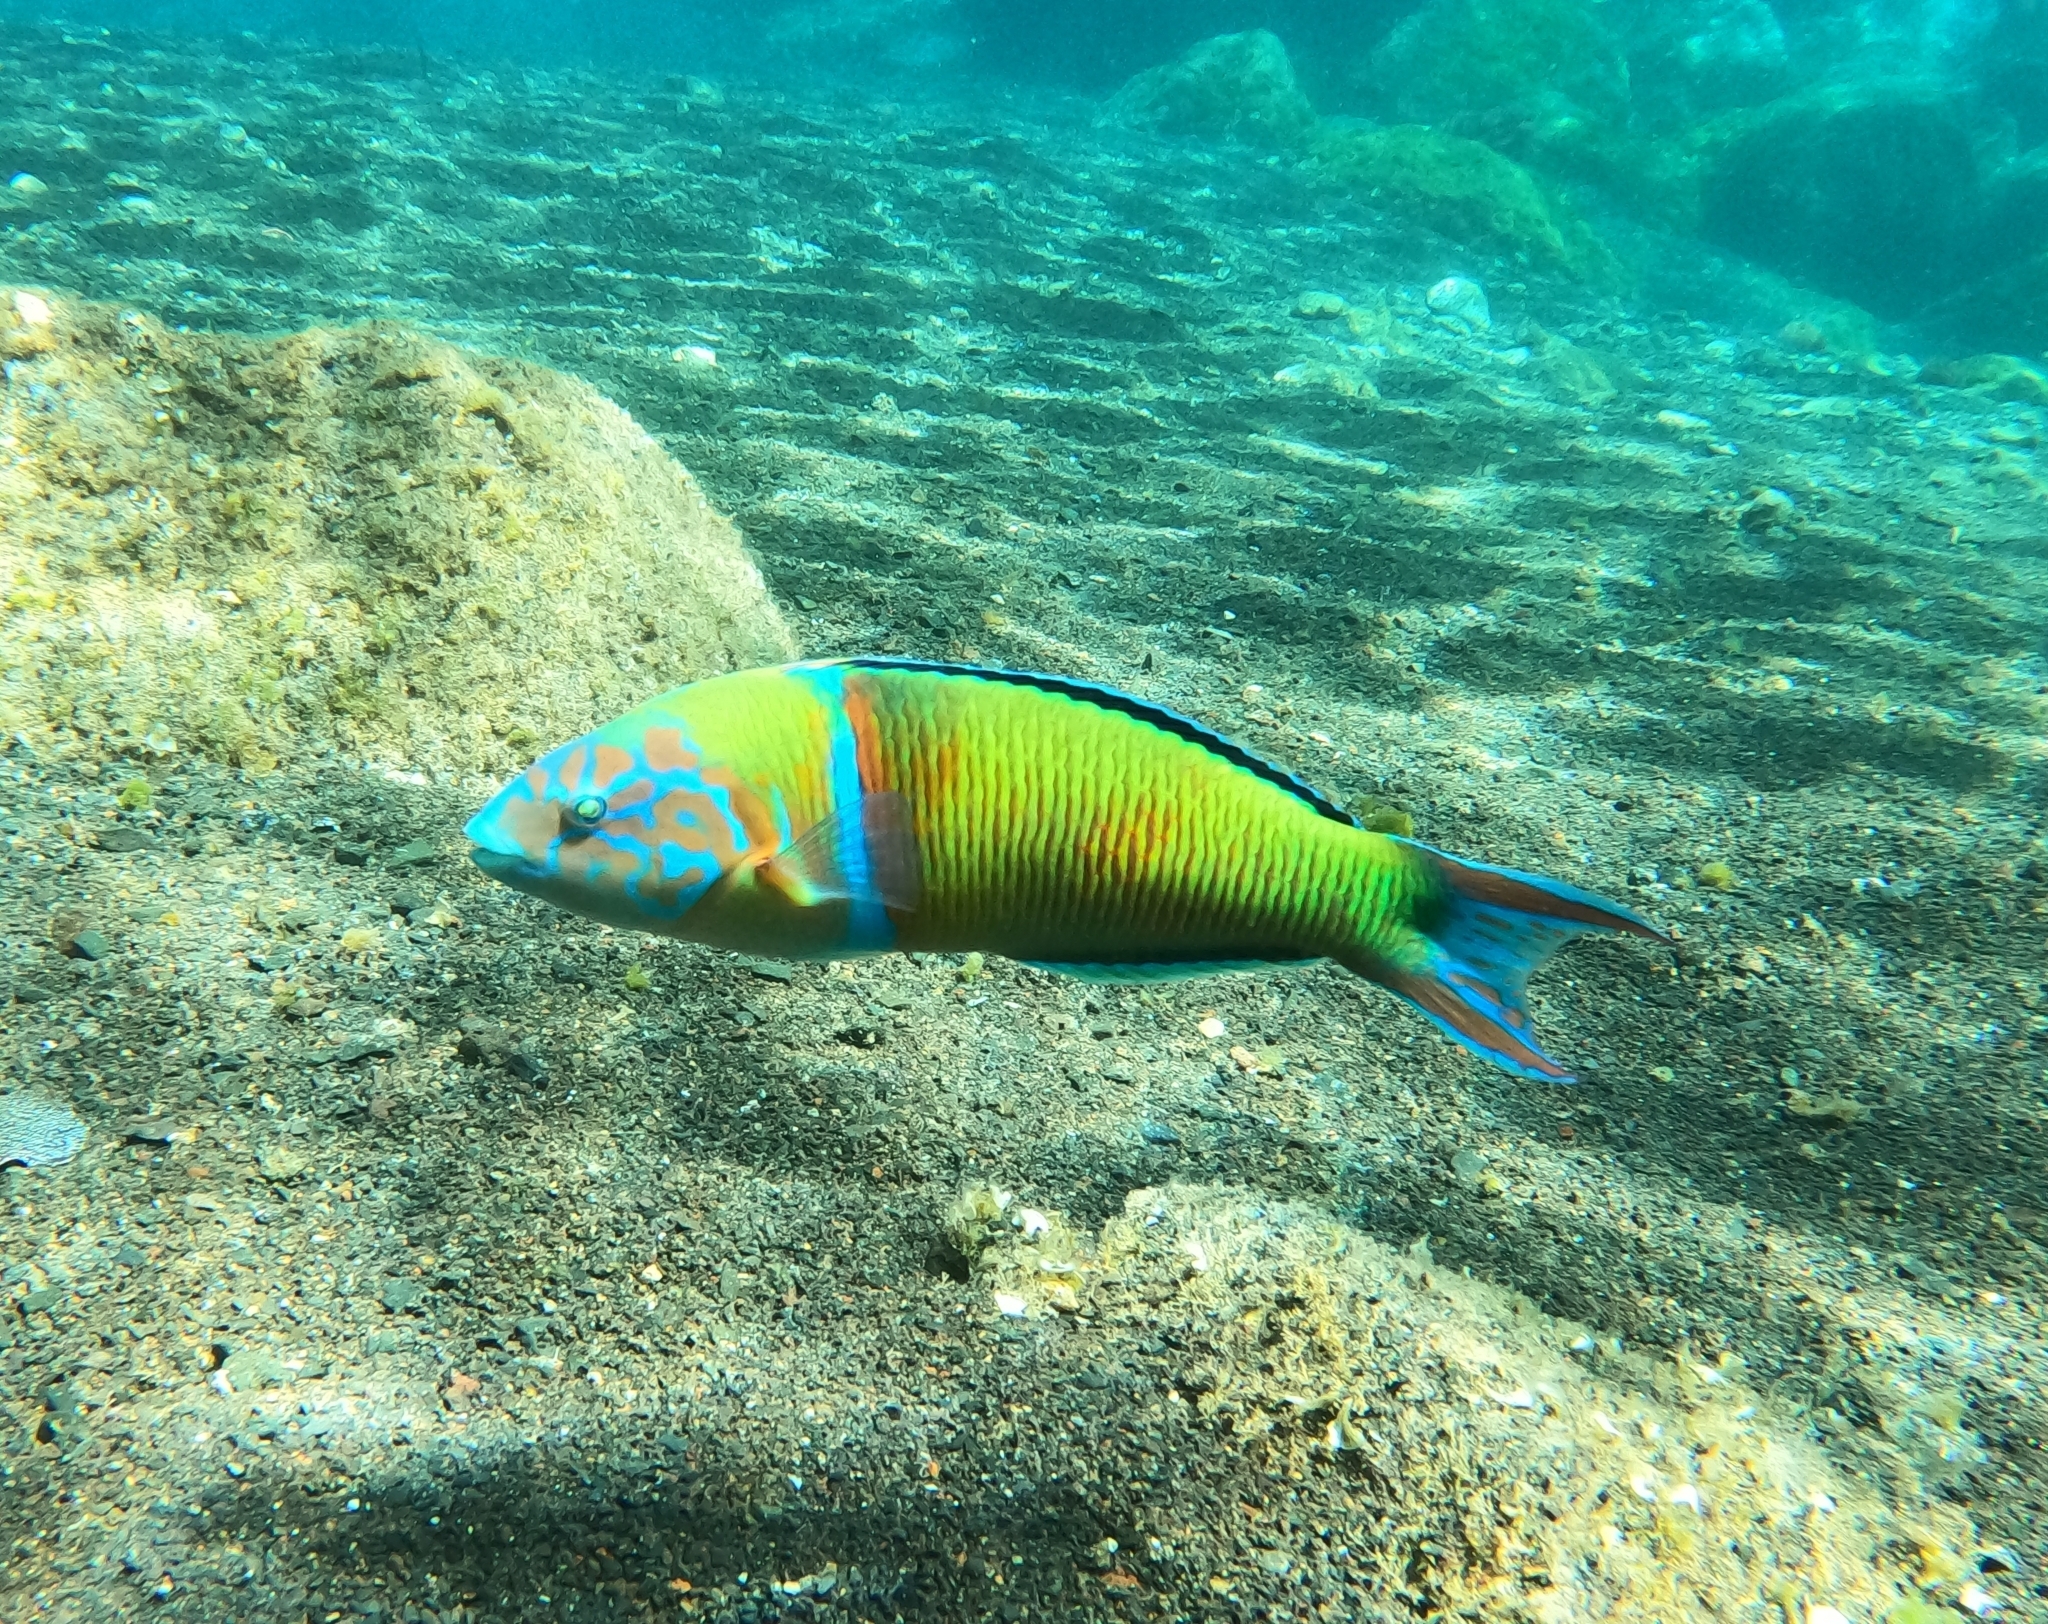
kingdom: Animalia
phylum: Chordata
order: Perciformes
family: Labridae
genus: Thalassoma
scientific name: Thalassoma pavo
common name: Ornate wrasse
